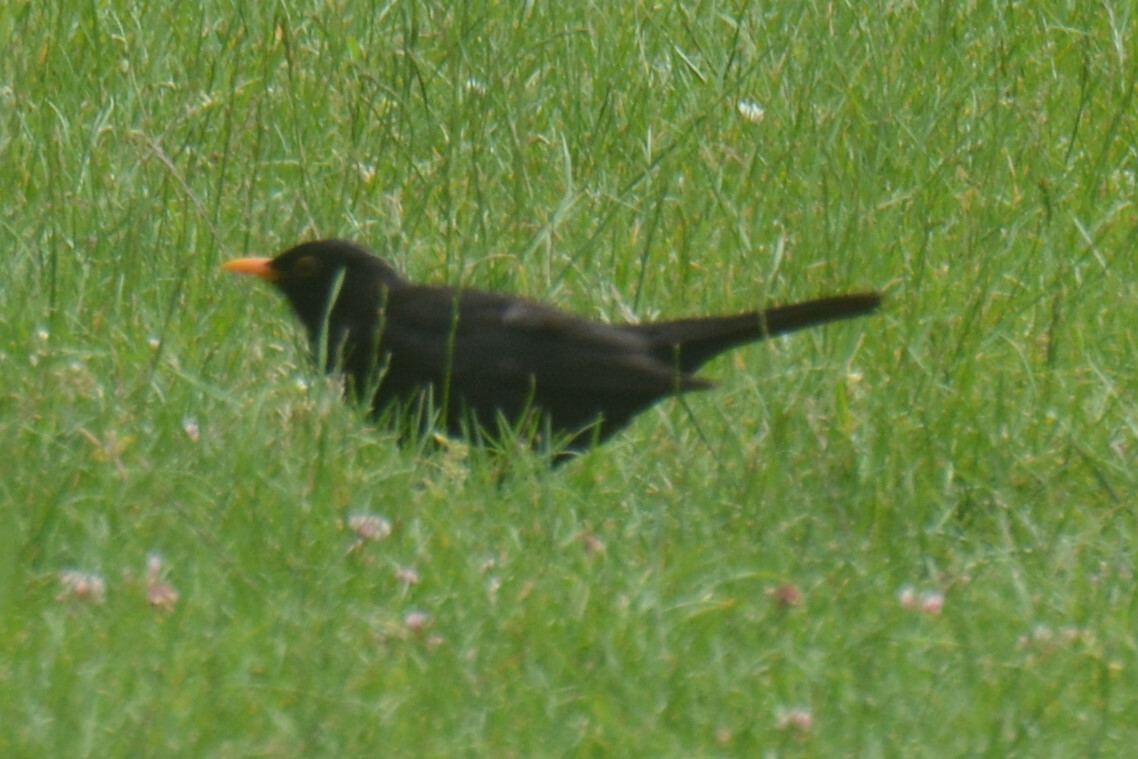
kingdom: Animalia
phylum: Chordata
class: Aves
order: Passeriformes
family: Turdidae
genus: Turdus
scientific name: Turdus merula
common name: Common blackbird
